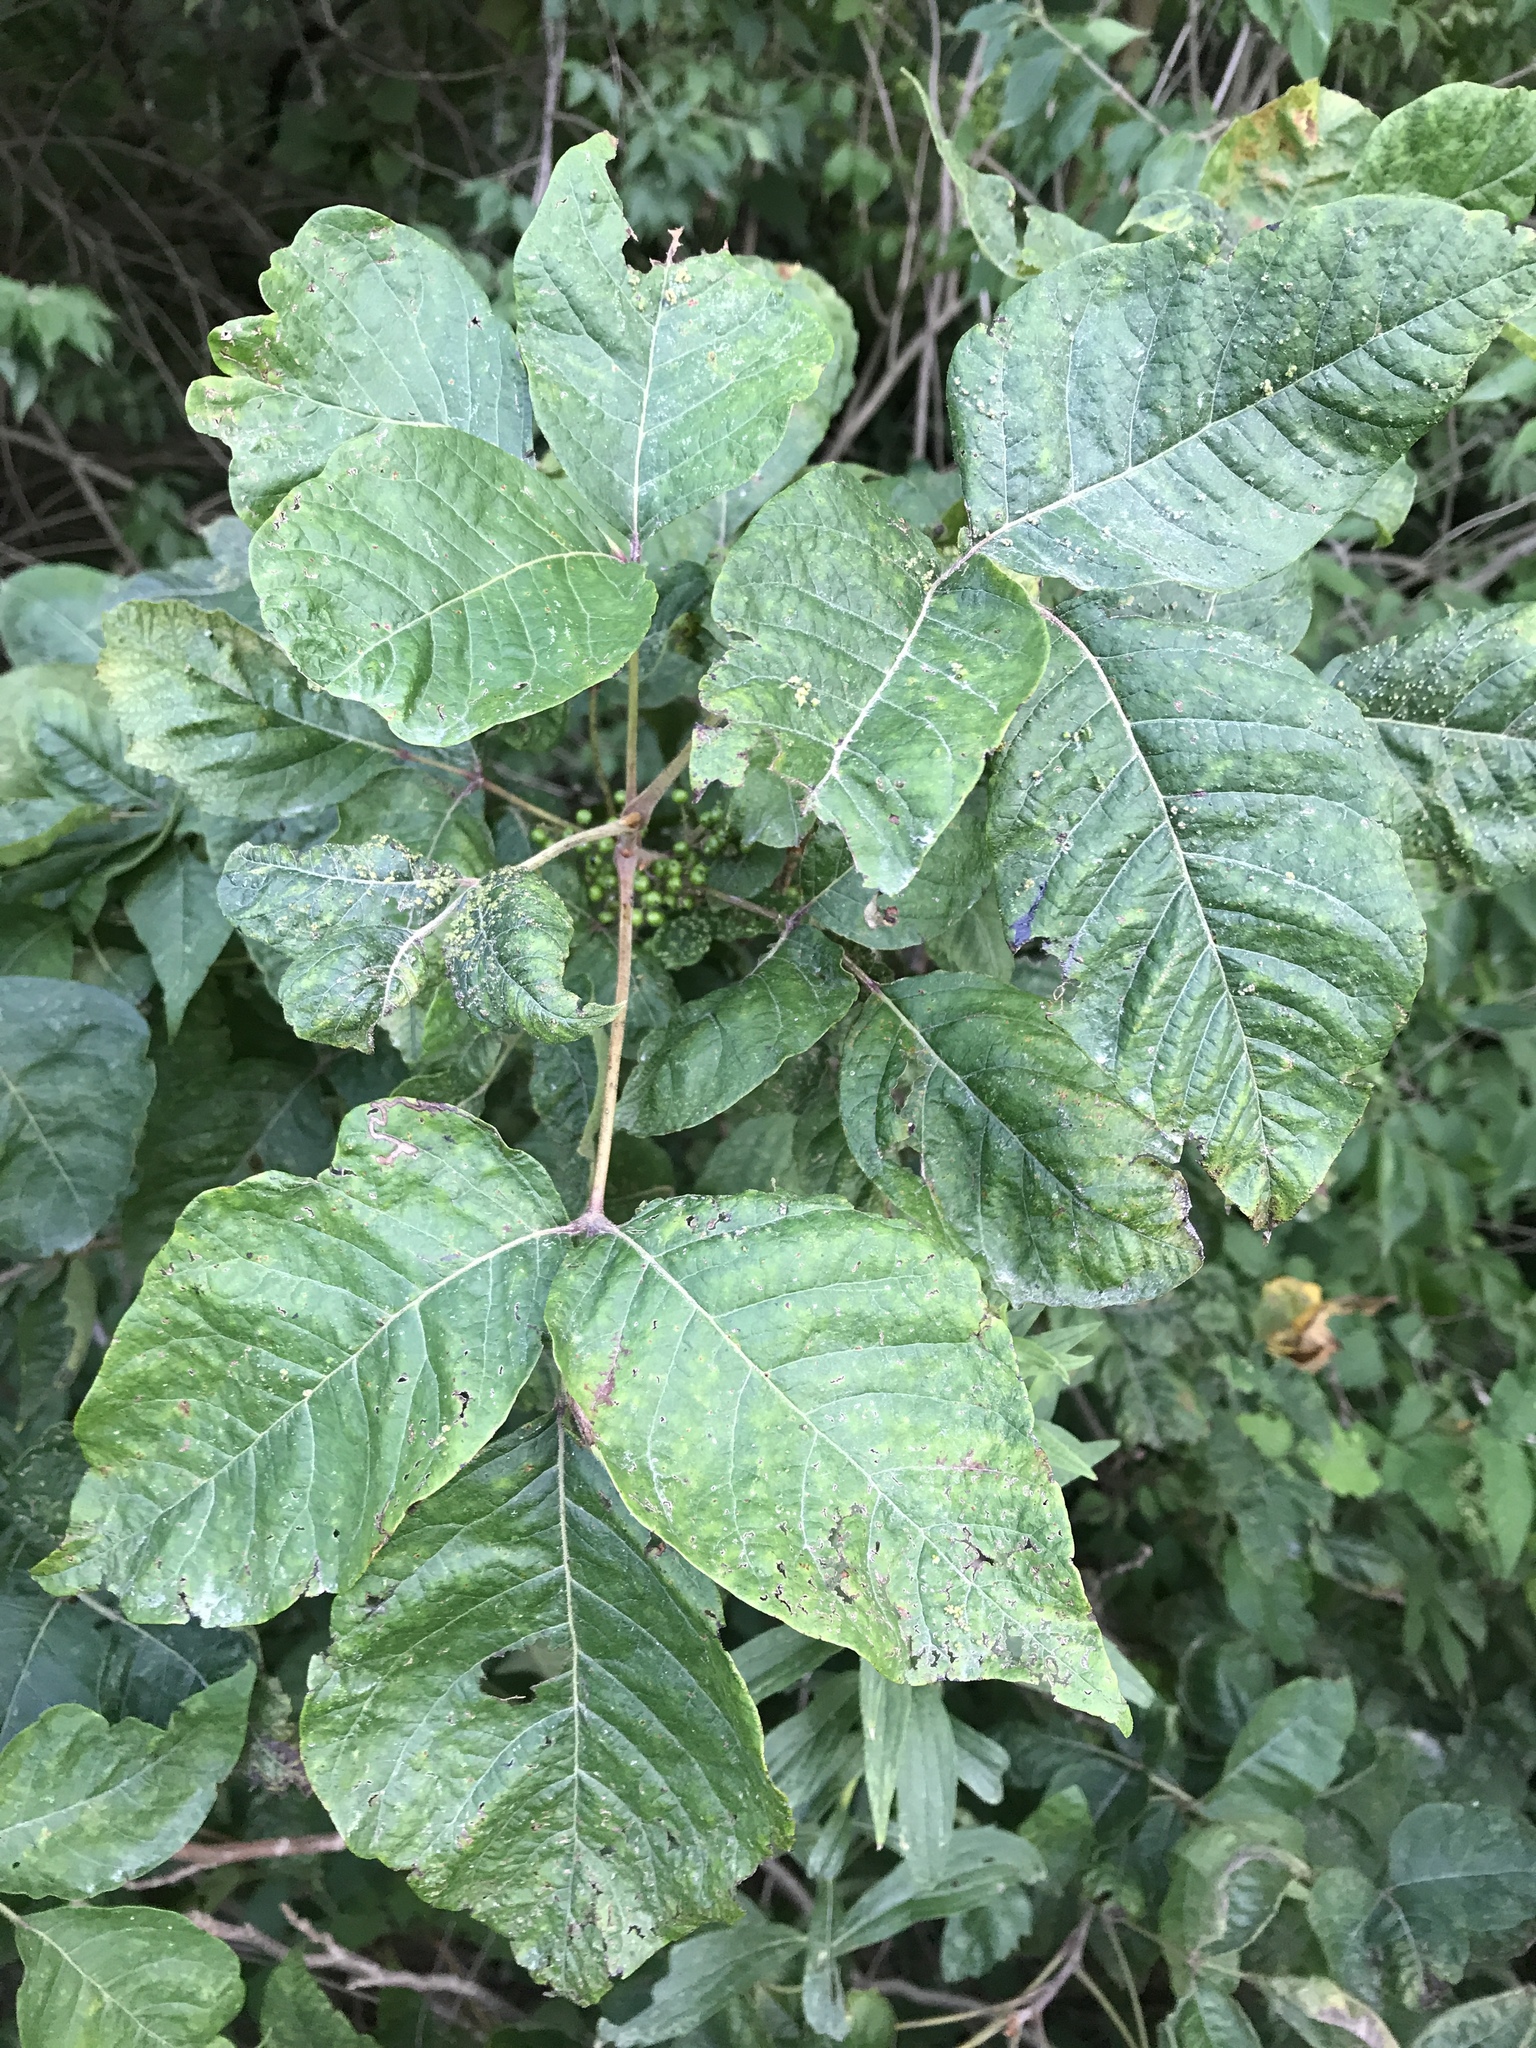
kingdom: Plantae
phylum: Tracheophyta
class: Magnoliopsida
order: Sapindales
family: Anacardiaceae
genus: Toxicodendron
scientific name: Toxicodendron radicans
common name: Poison ivy
